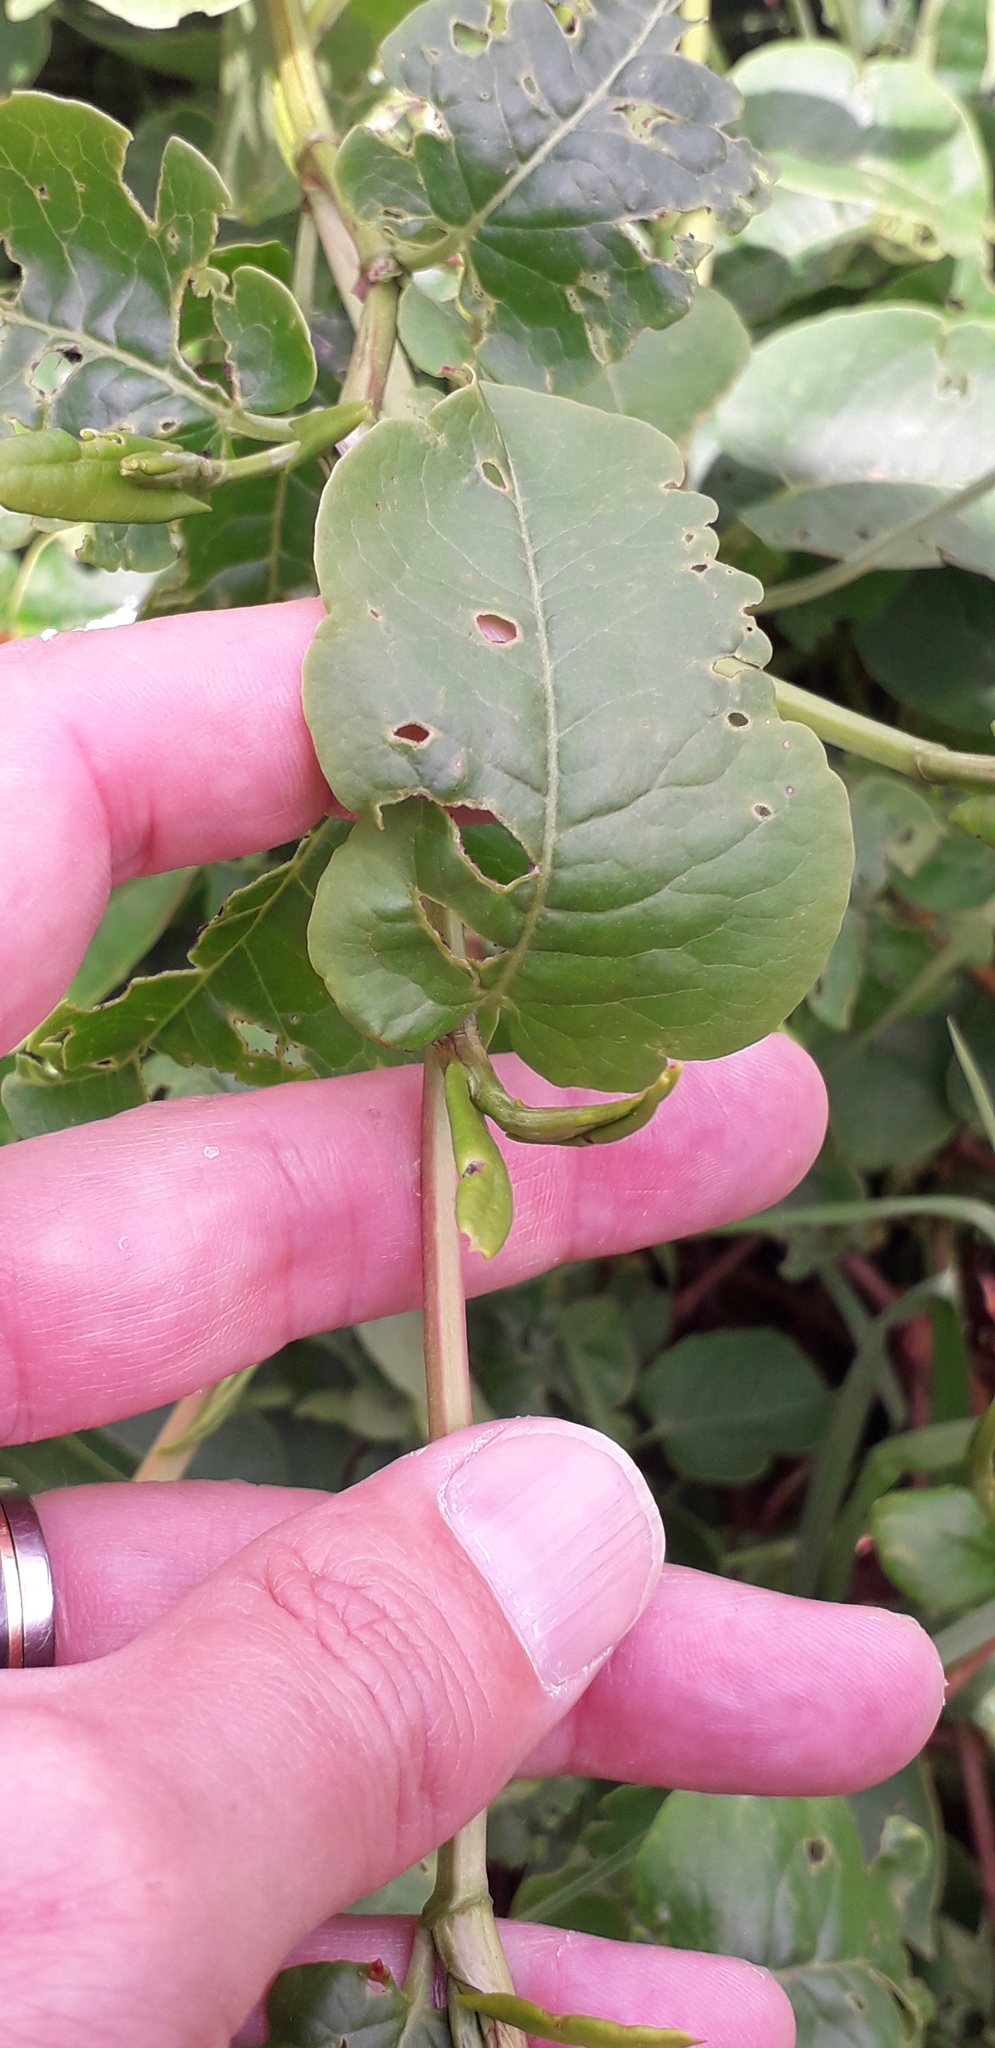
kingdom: Plantae
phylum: Tracheophyta
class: Magnoliopsida
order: Caryophyllales
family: Polygonaceae
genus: Muehlenbeckia
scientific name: Muehlenbeckia tamnifolia
